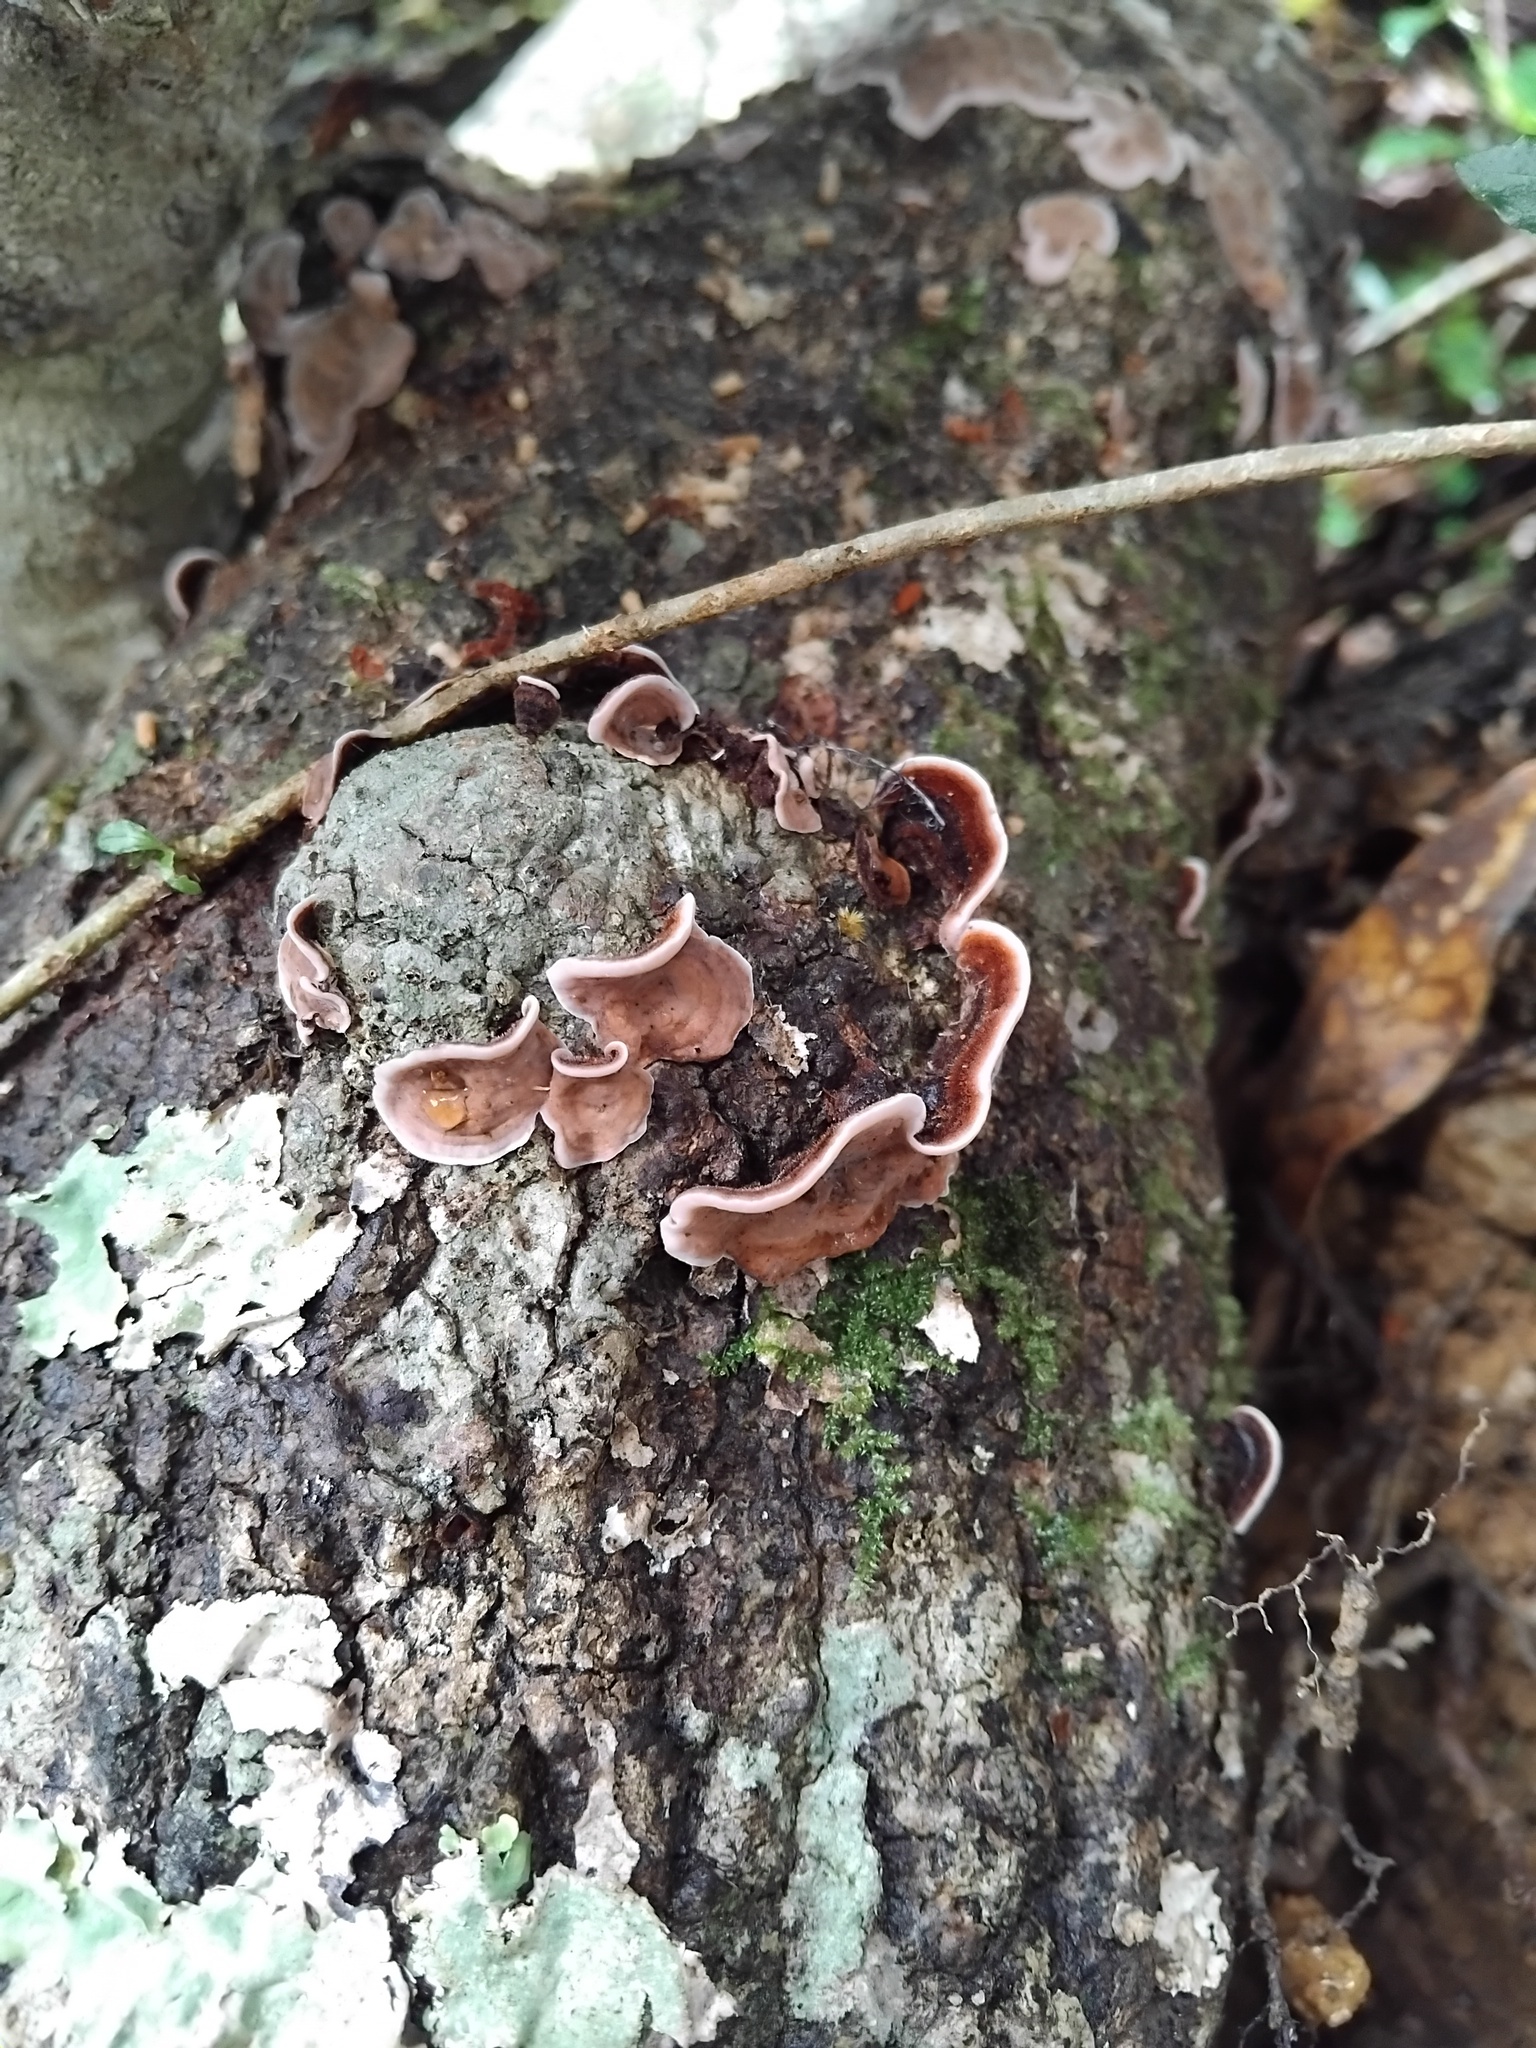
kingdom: Fungi
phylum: Basidiomycota
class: Agaricomycetes
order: Russulales
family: Stereaceae
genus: Xylobolus
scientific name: Xylobolus illudens
